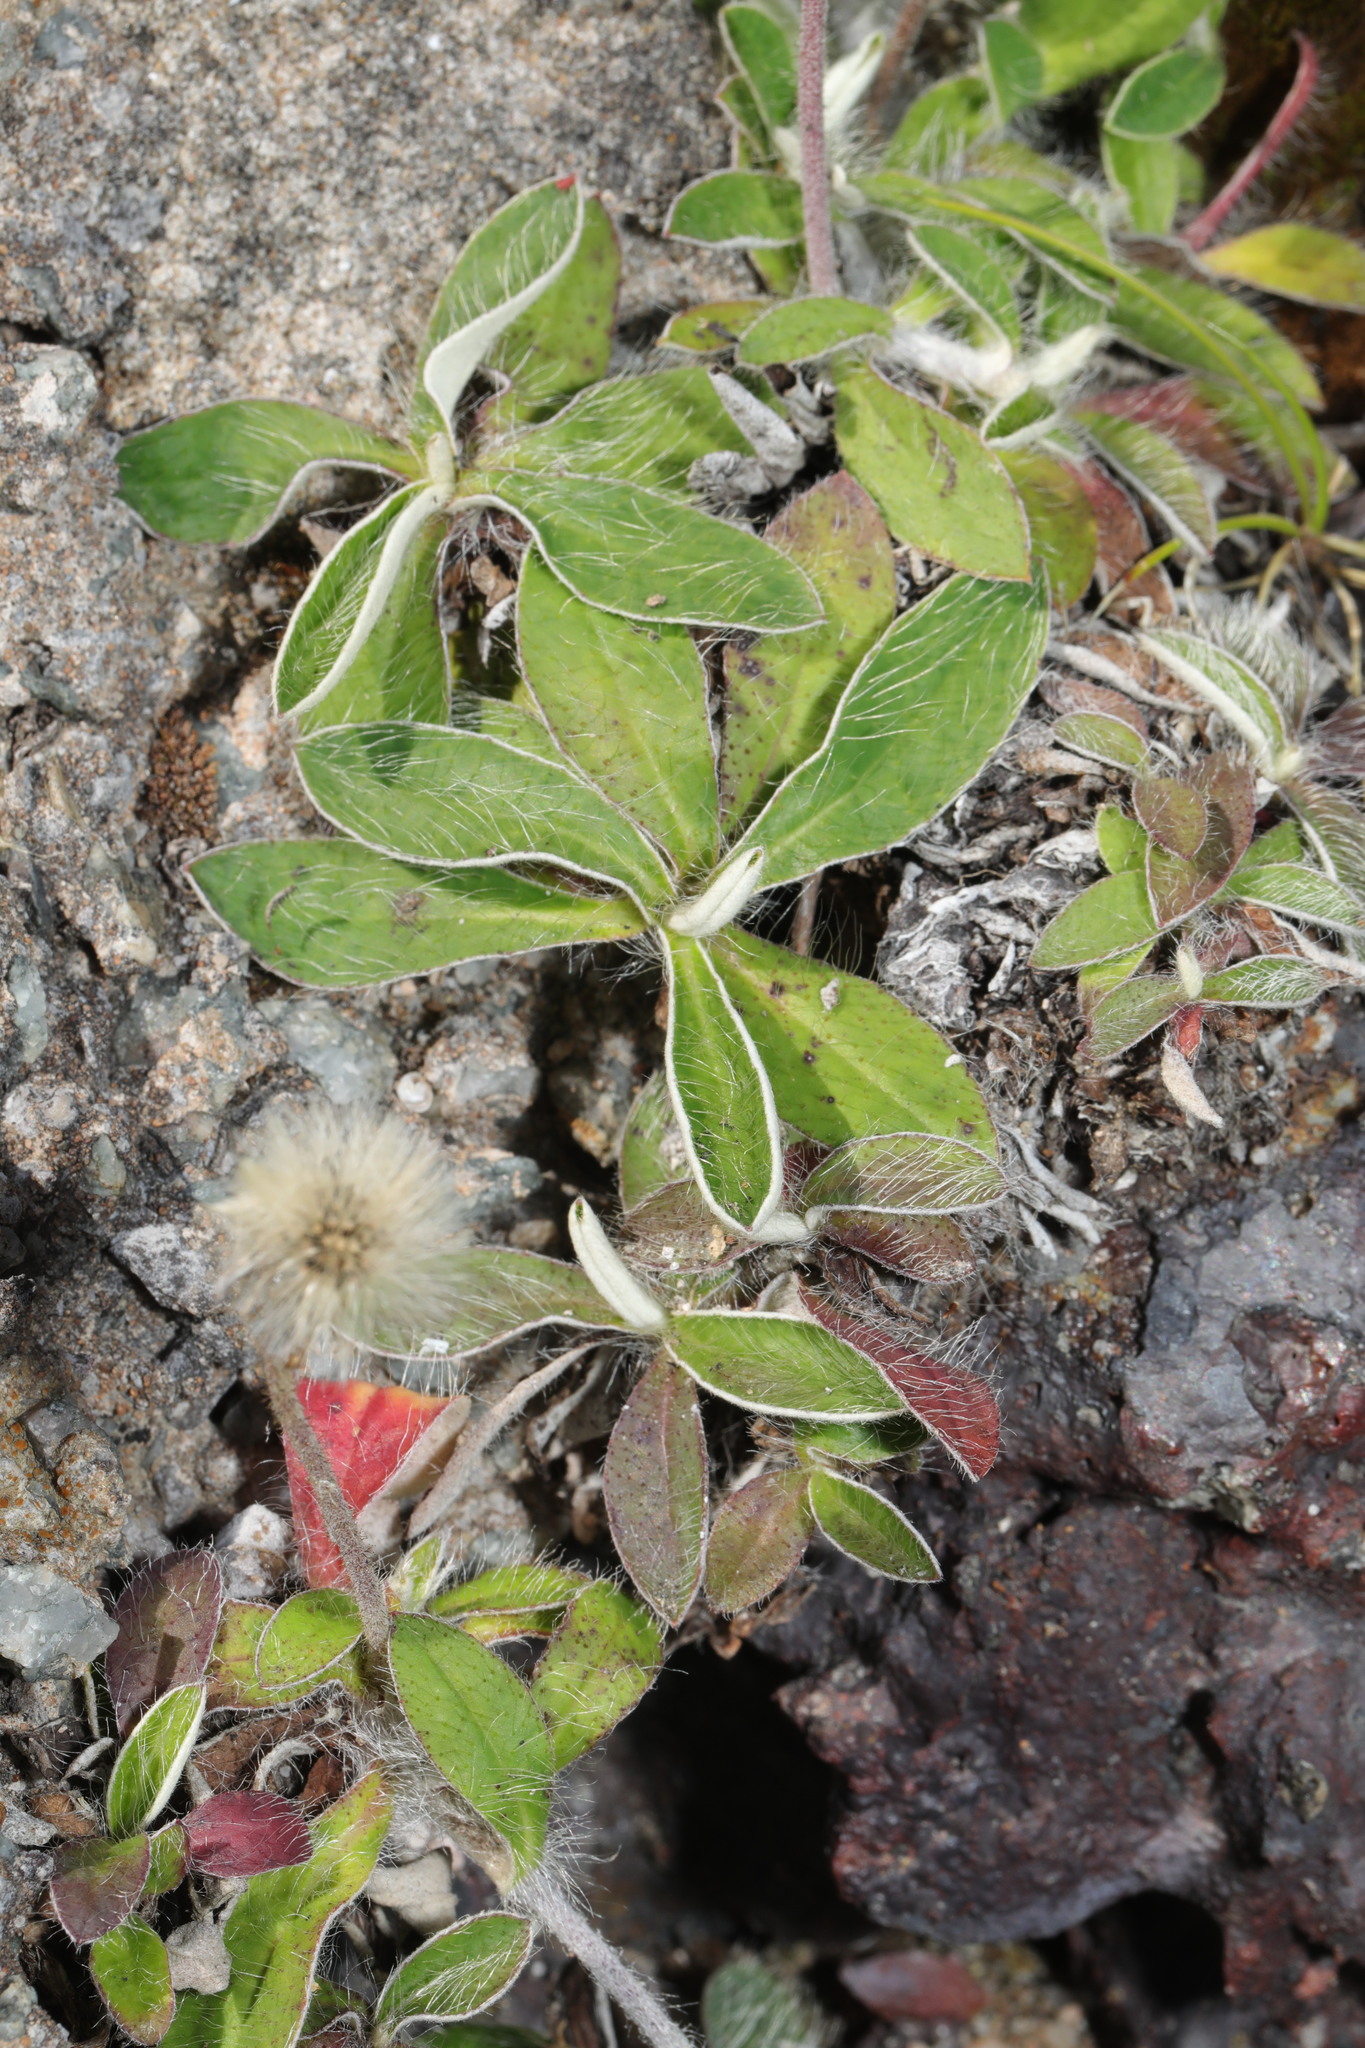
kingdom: Plantae
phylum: Tracheophyta
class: Magnoliopsida
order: Asterales
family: Asteraceae
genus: Pilosella
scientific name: Pilosella officinarum
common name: Mouse-ear hawkweed
